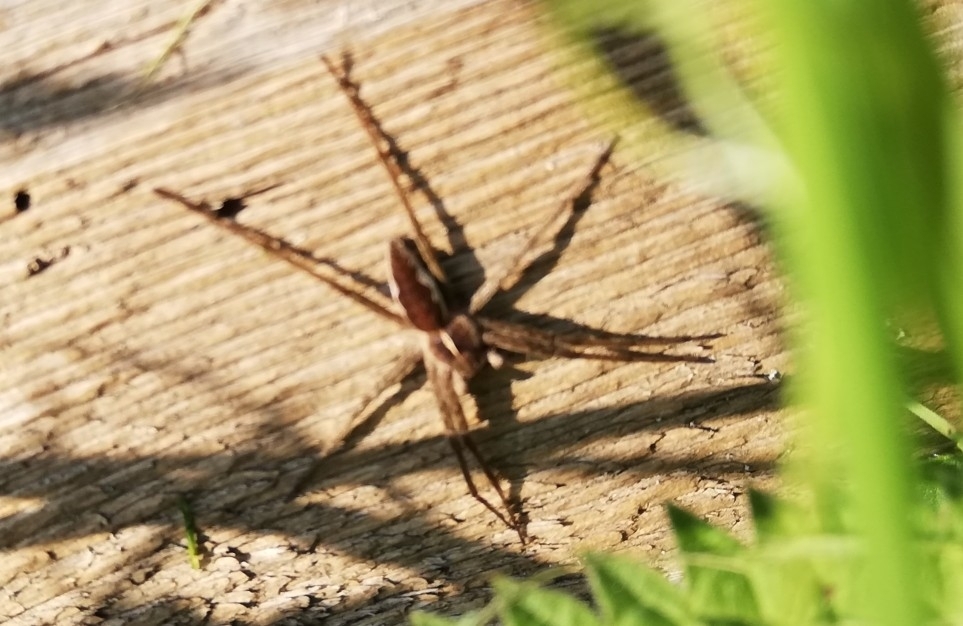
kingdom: Animalia
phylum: Arthropoda
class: Arachnida
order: Araneae
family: Pisauridae
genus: Pisaura
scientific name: Pisaura mirabilis
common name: Tent spider
